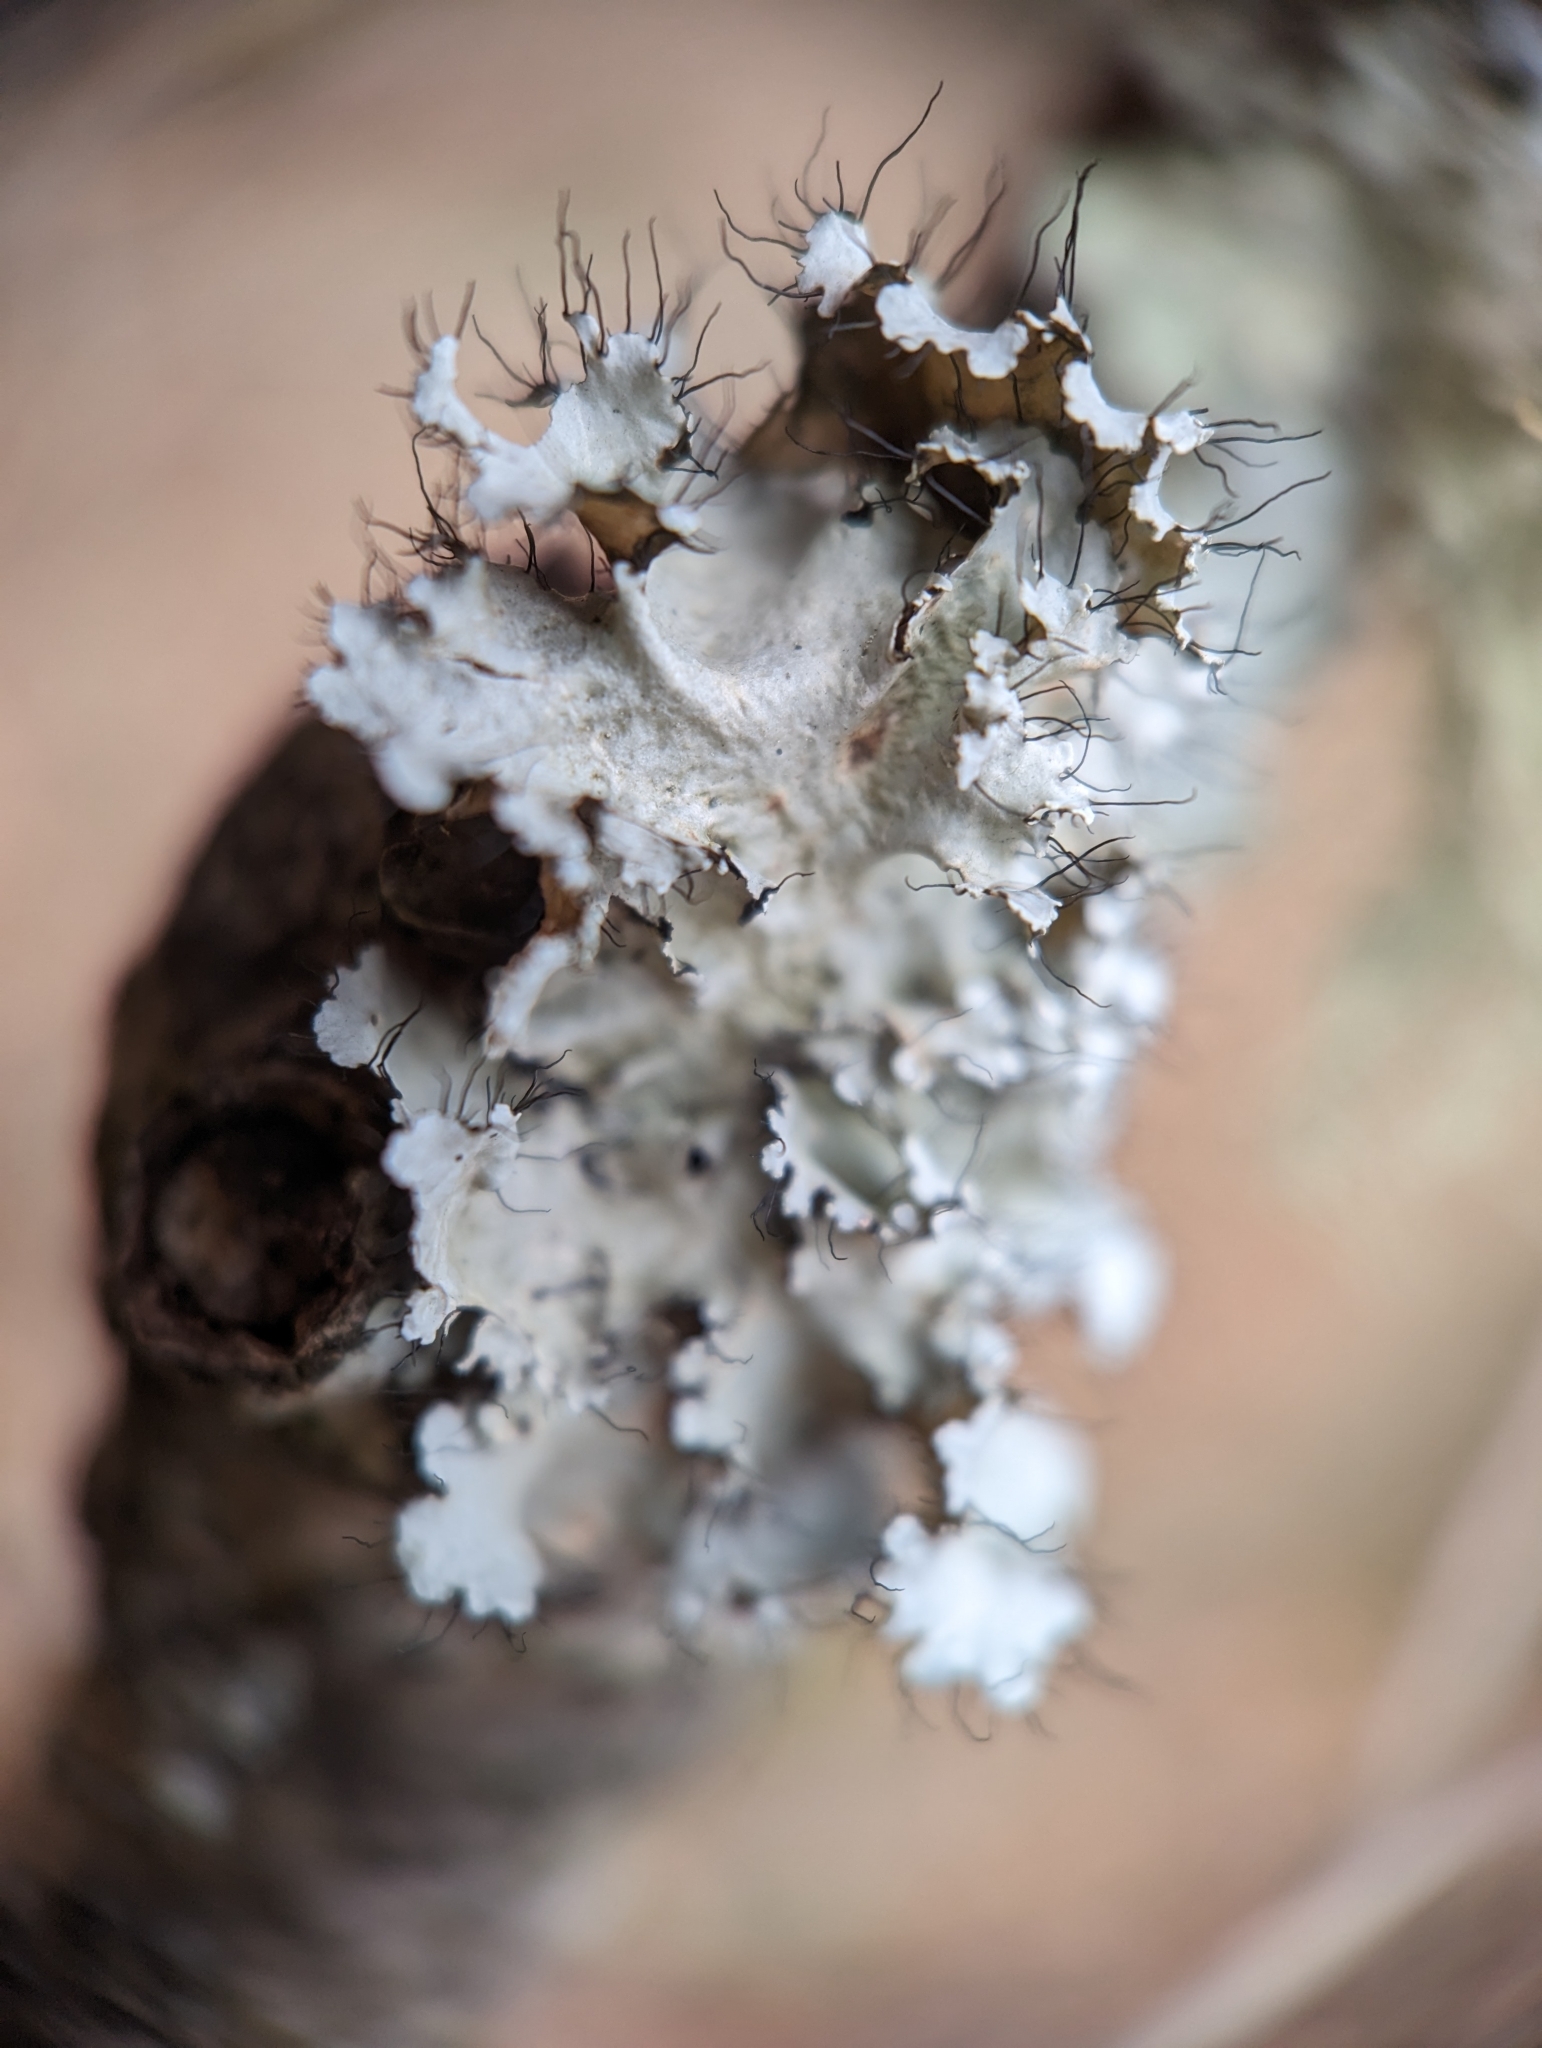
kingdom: Fungi
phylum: Ascomycota
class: Lecanoromycetes
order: Lecanorales
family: Parmeliaceae
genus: Parmotrema
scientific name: Parmotrema hypotropum
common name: Powdered ruffle lichen
